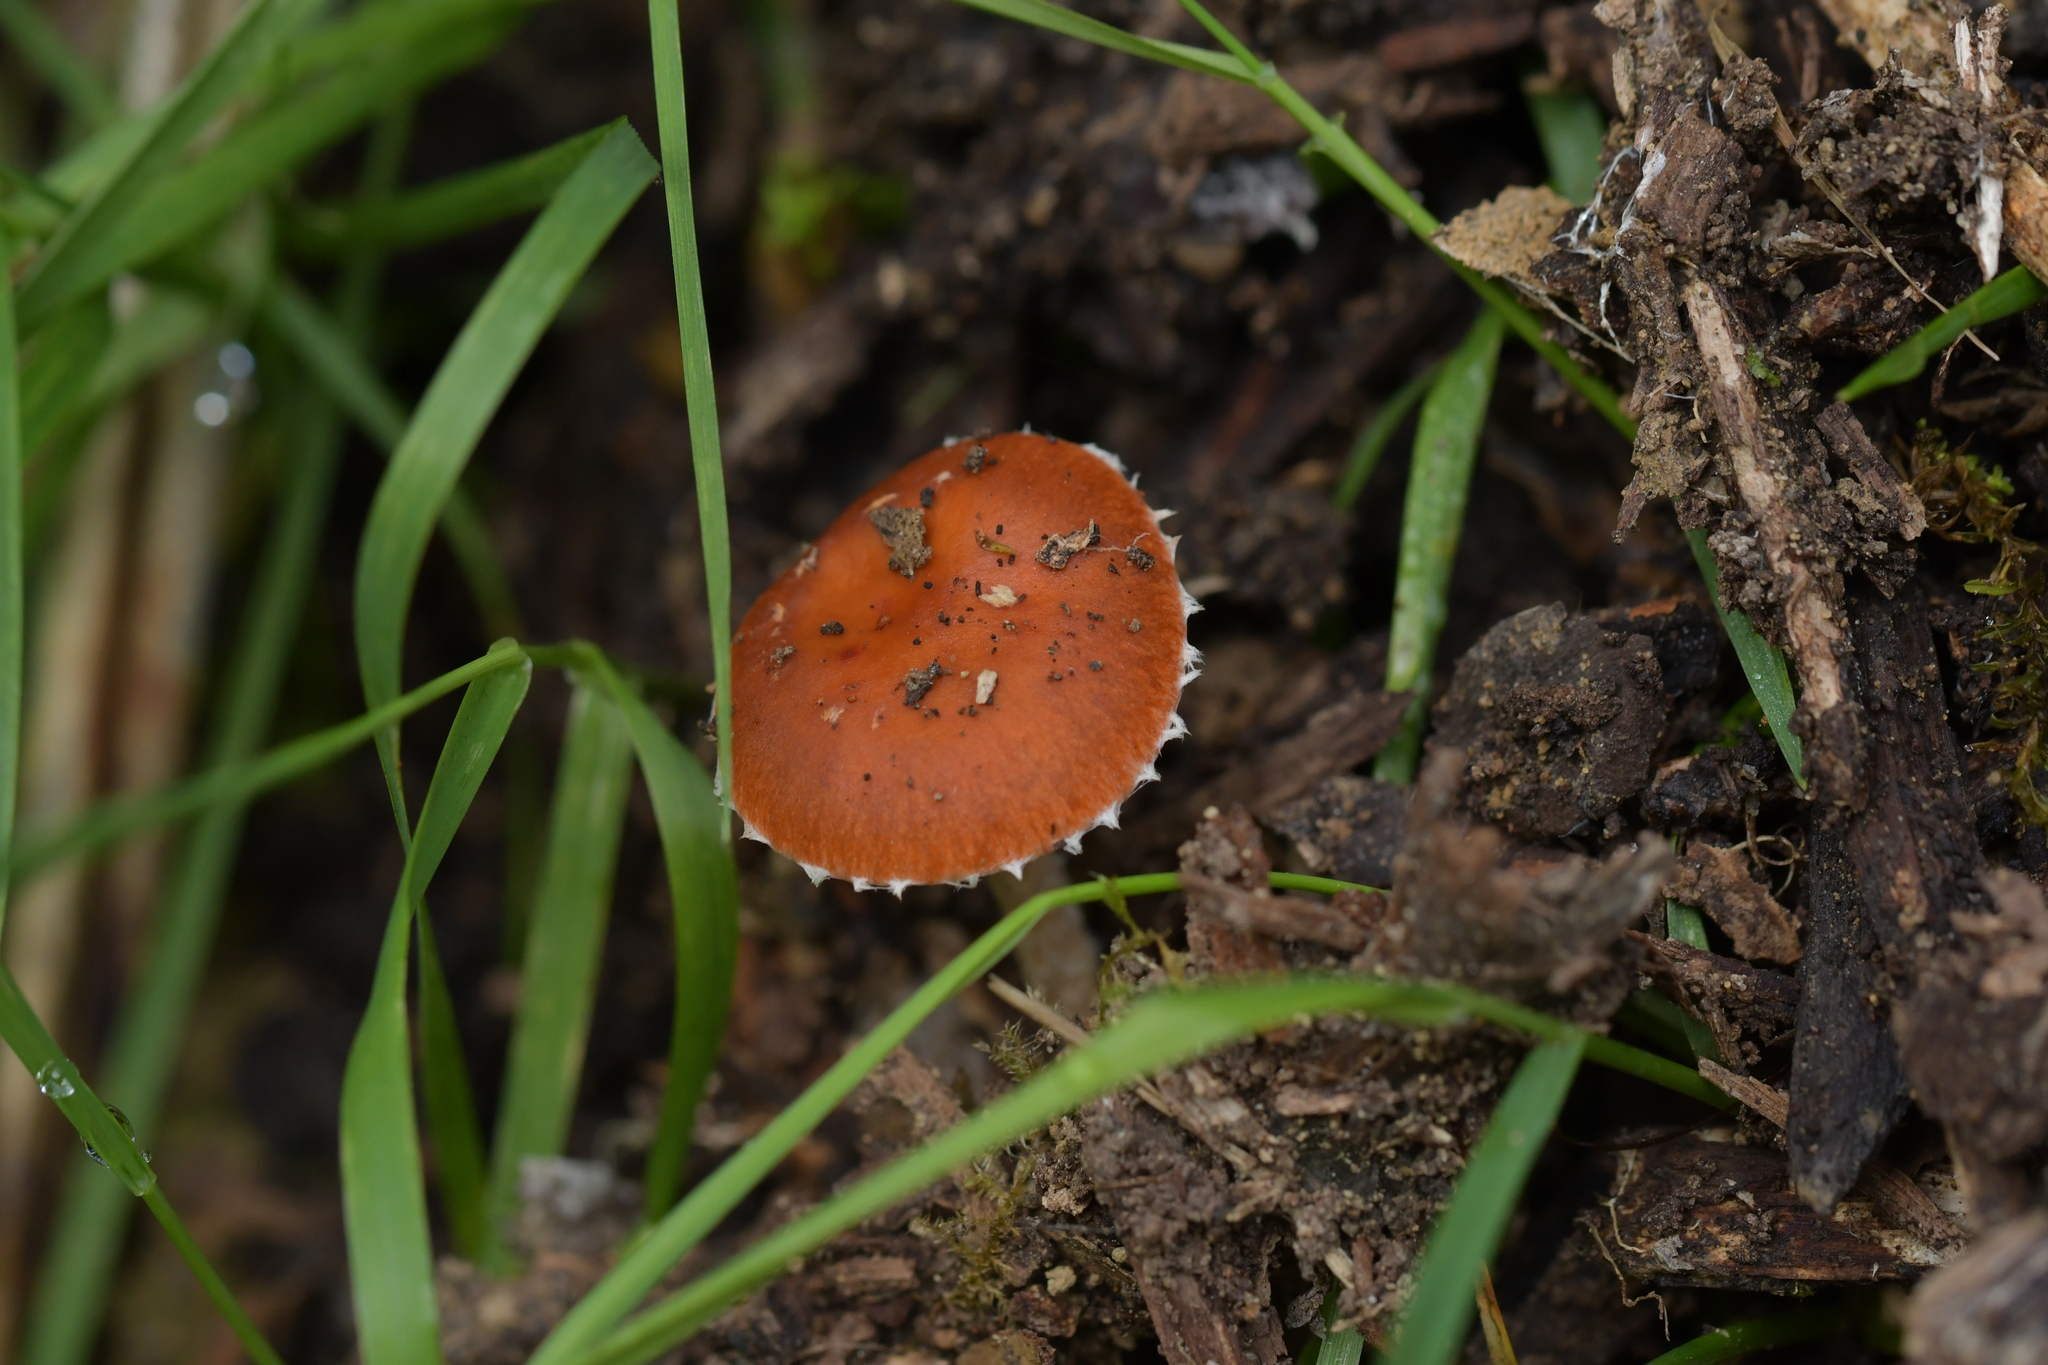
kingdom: Fungi
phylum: Basidiomycota
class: Agaricomycetes
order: Agaricales
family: Strophariaceae
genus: Leratiomyces
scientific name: Leratiomyces ceres
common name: Redlead roundhead
